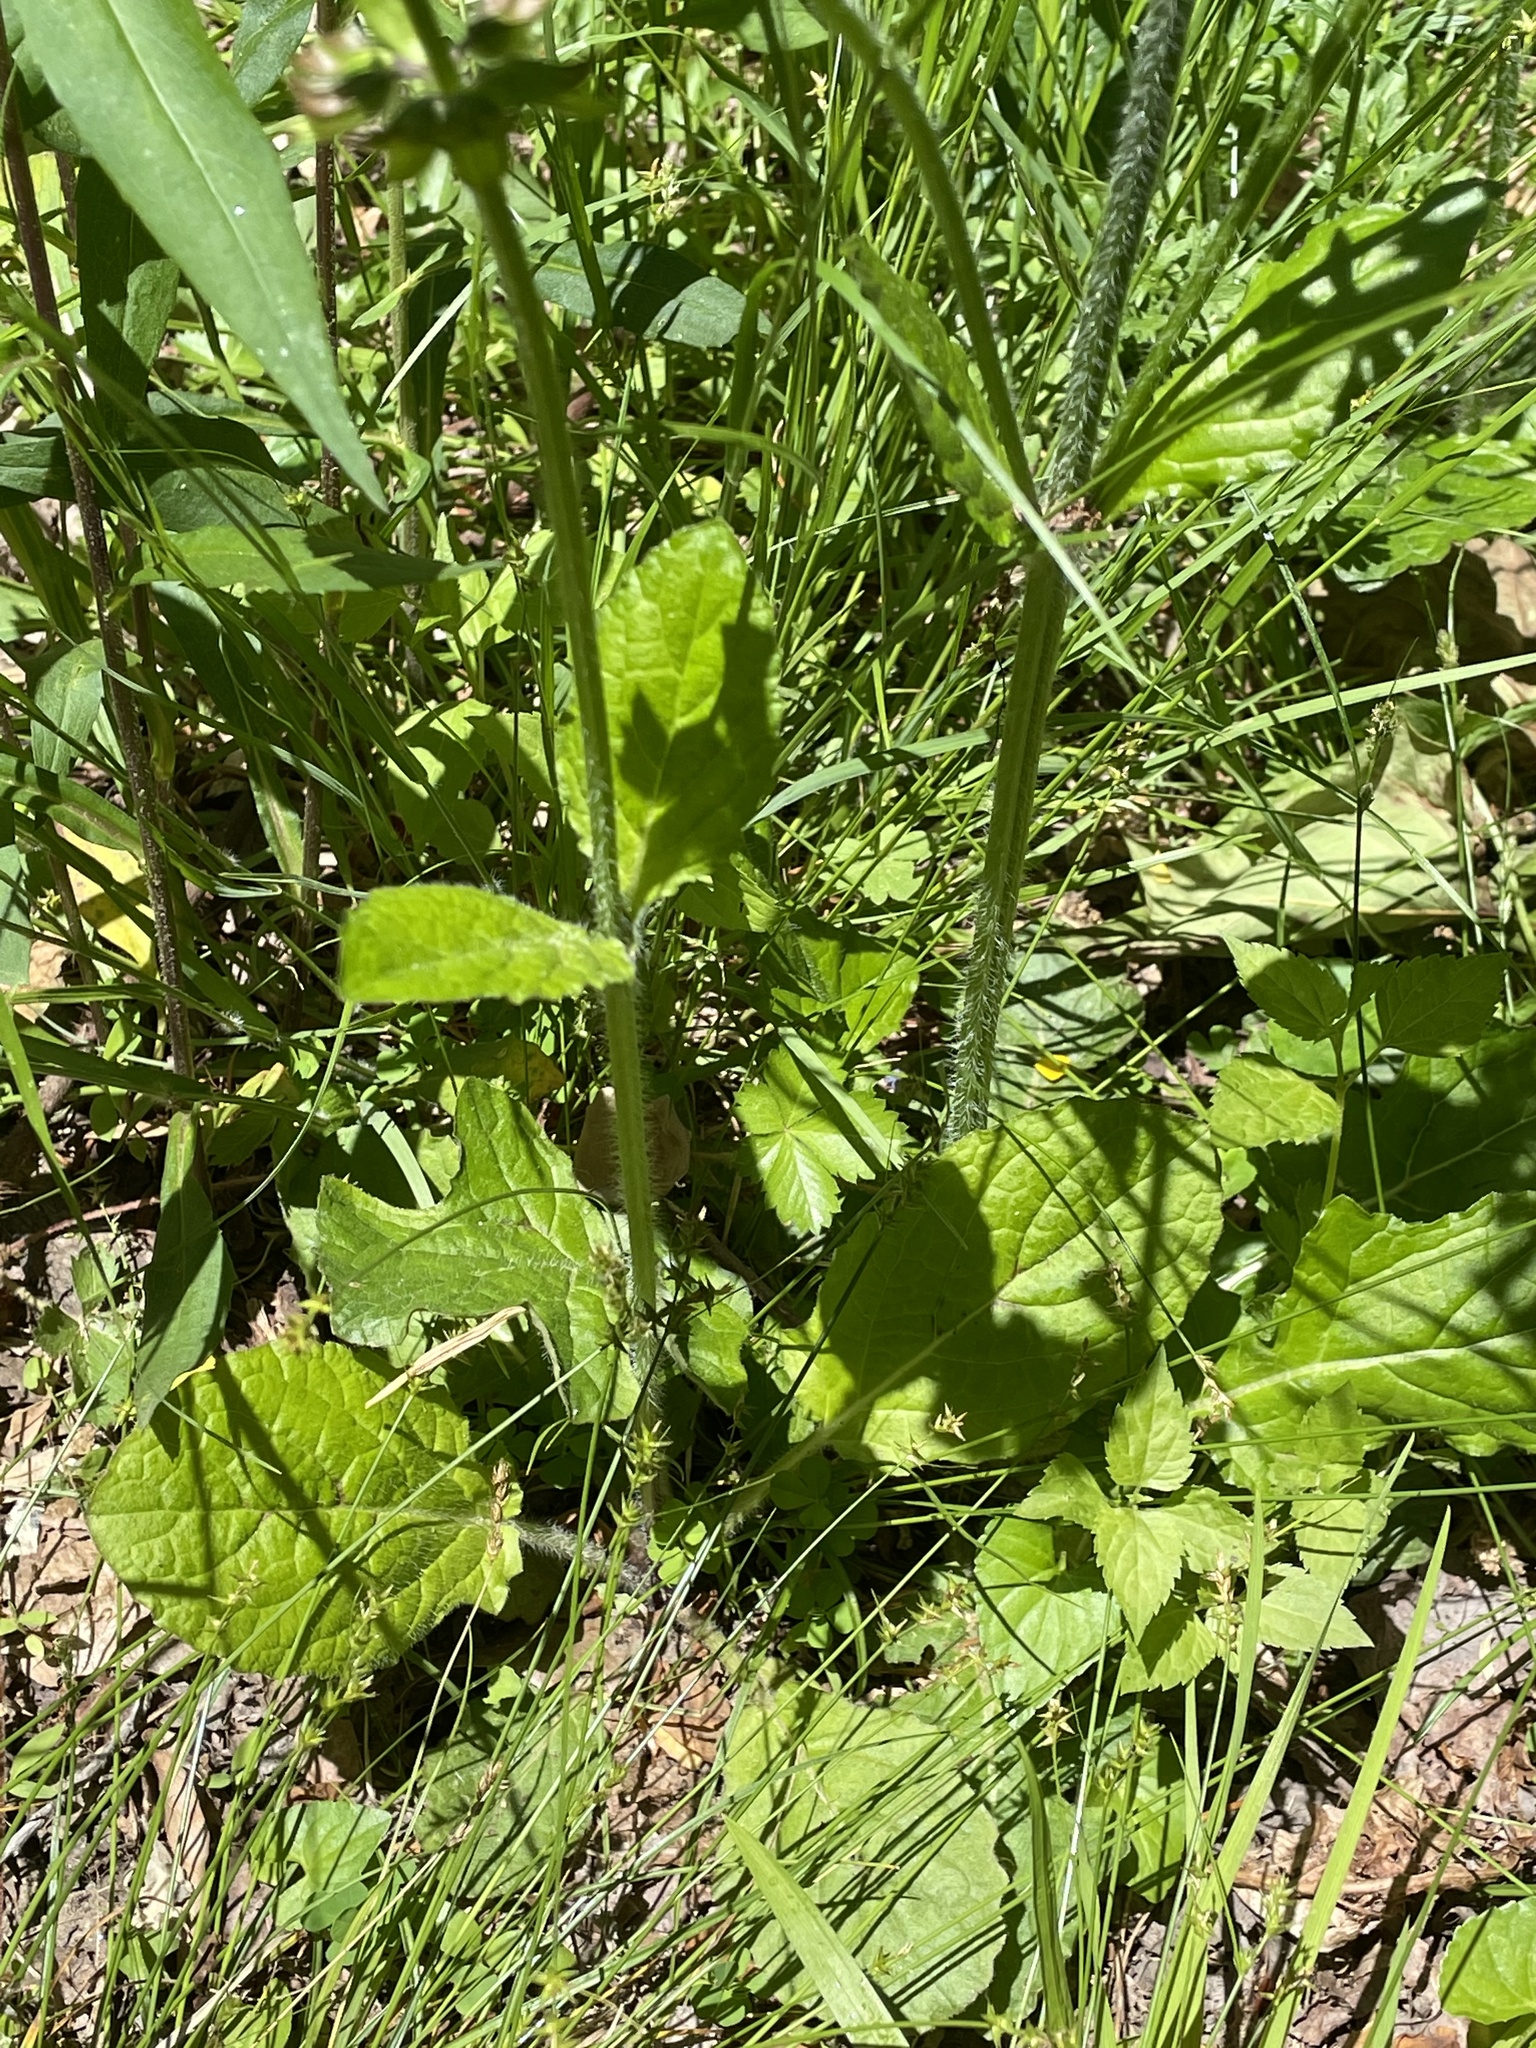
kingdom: Plantae
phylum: Tracheophyta
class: Magnoliopsida
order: Lamiales
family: Lamiaceae
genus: Salvia
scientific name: Salvia lyrata
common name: Cancerweed
